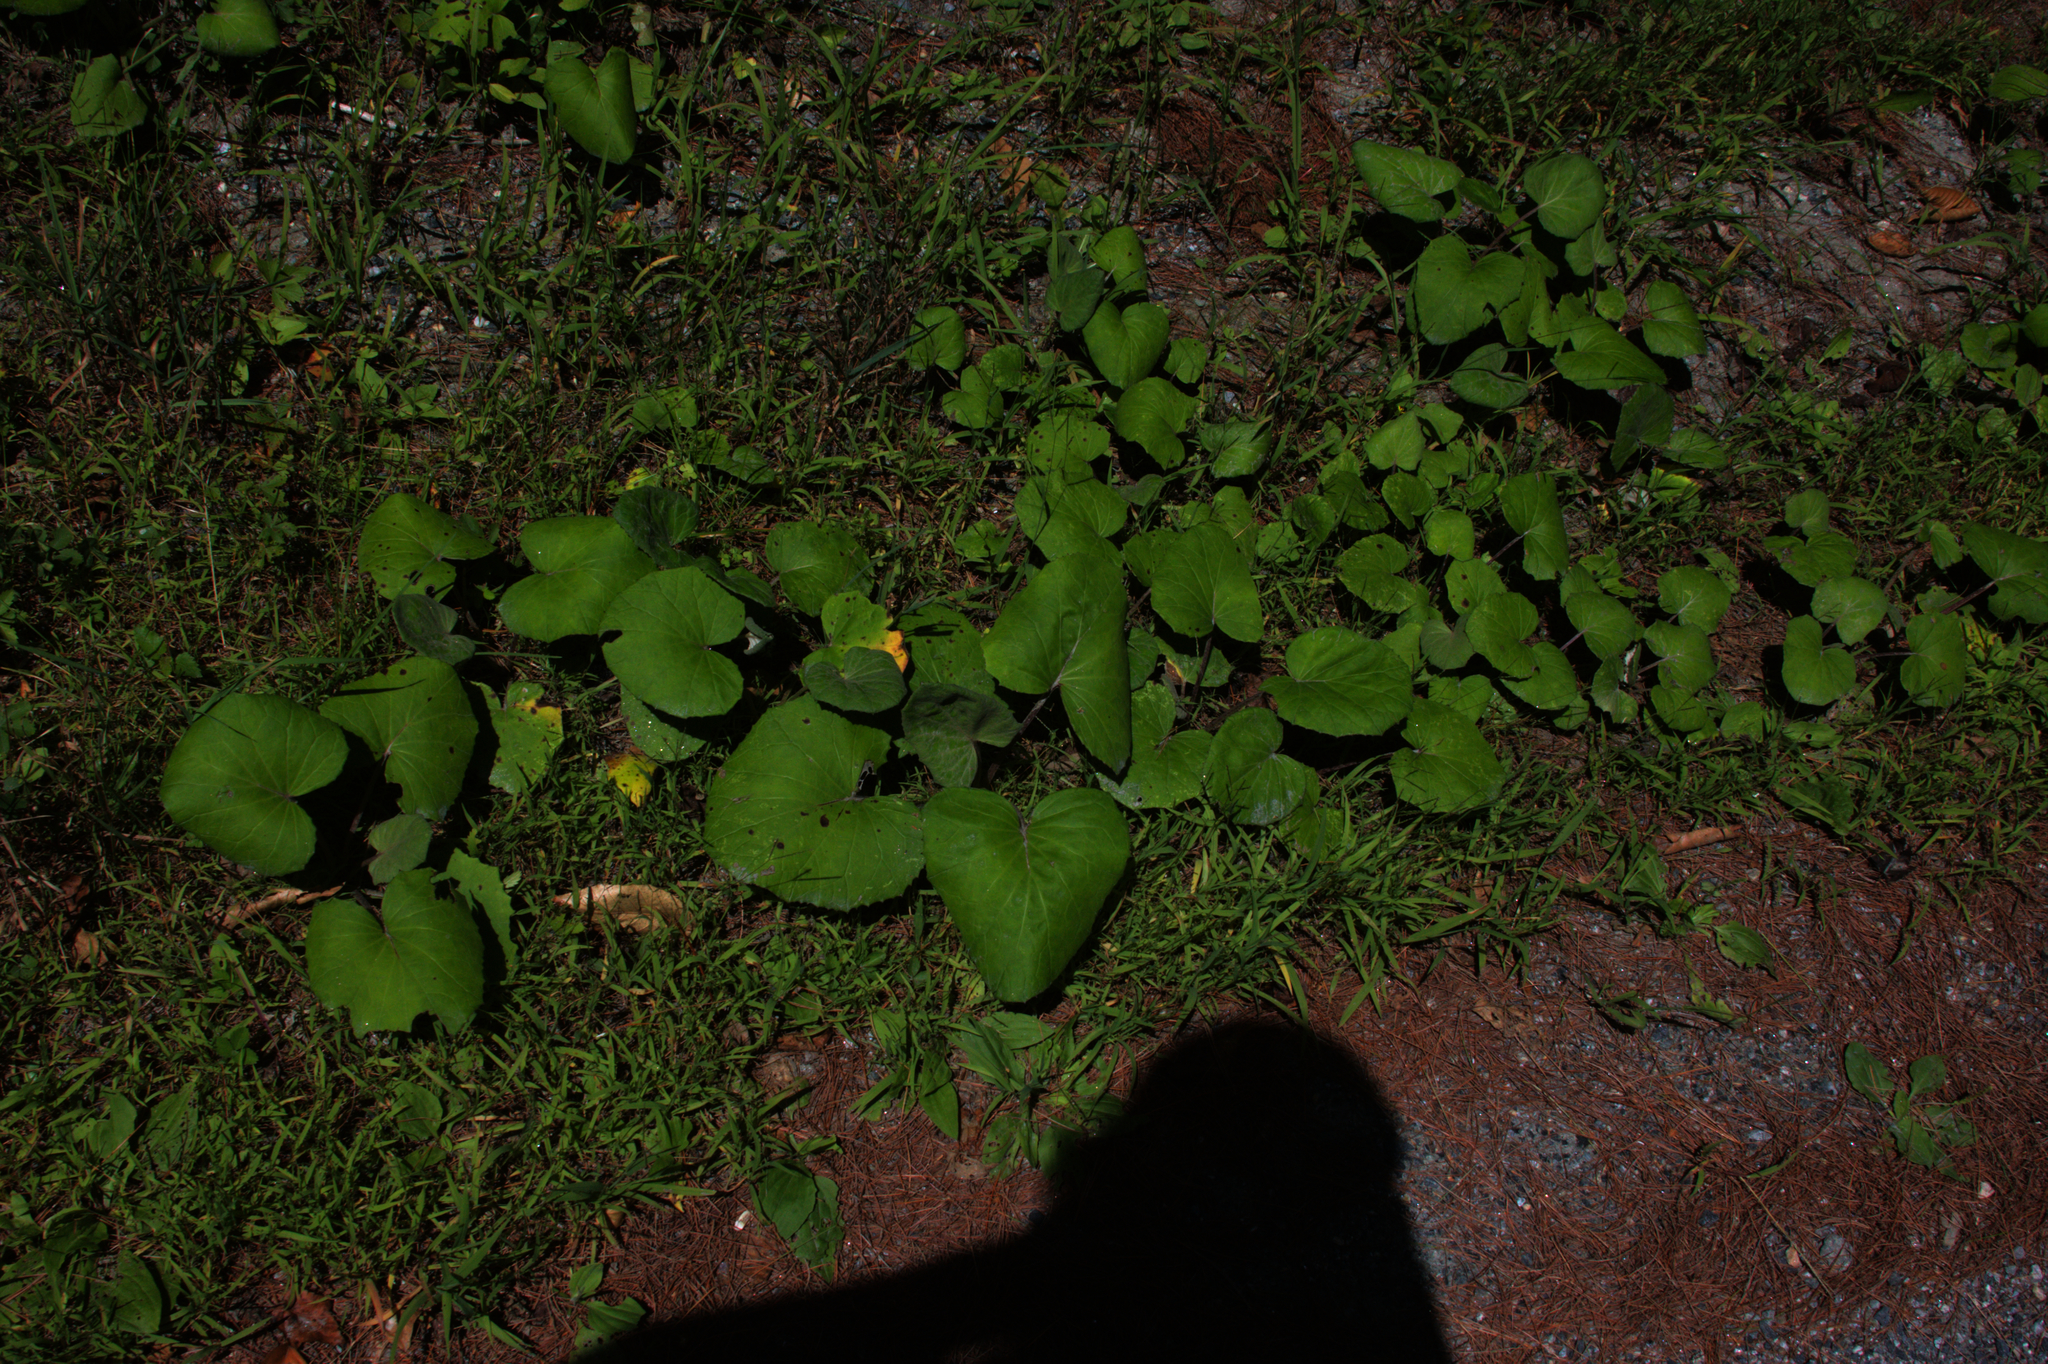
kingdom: Plantae
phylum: Tracheophyta
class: Magnoliopsida
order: Asterales
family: Asteraceae
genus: Tussilago
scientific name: Tussilago farfara
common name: Coltsfoot
